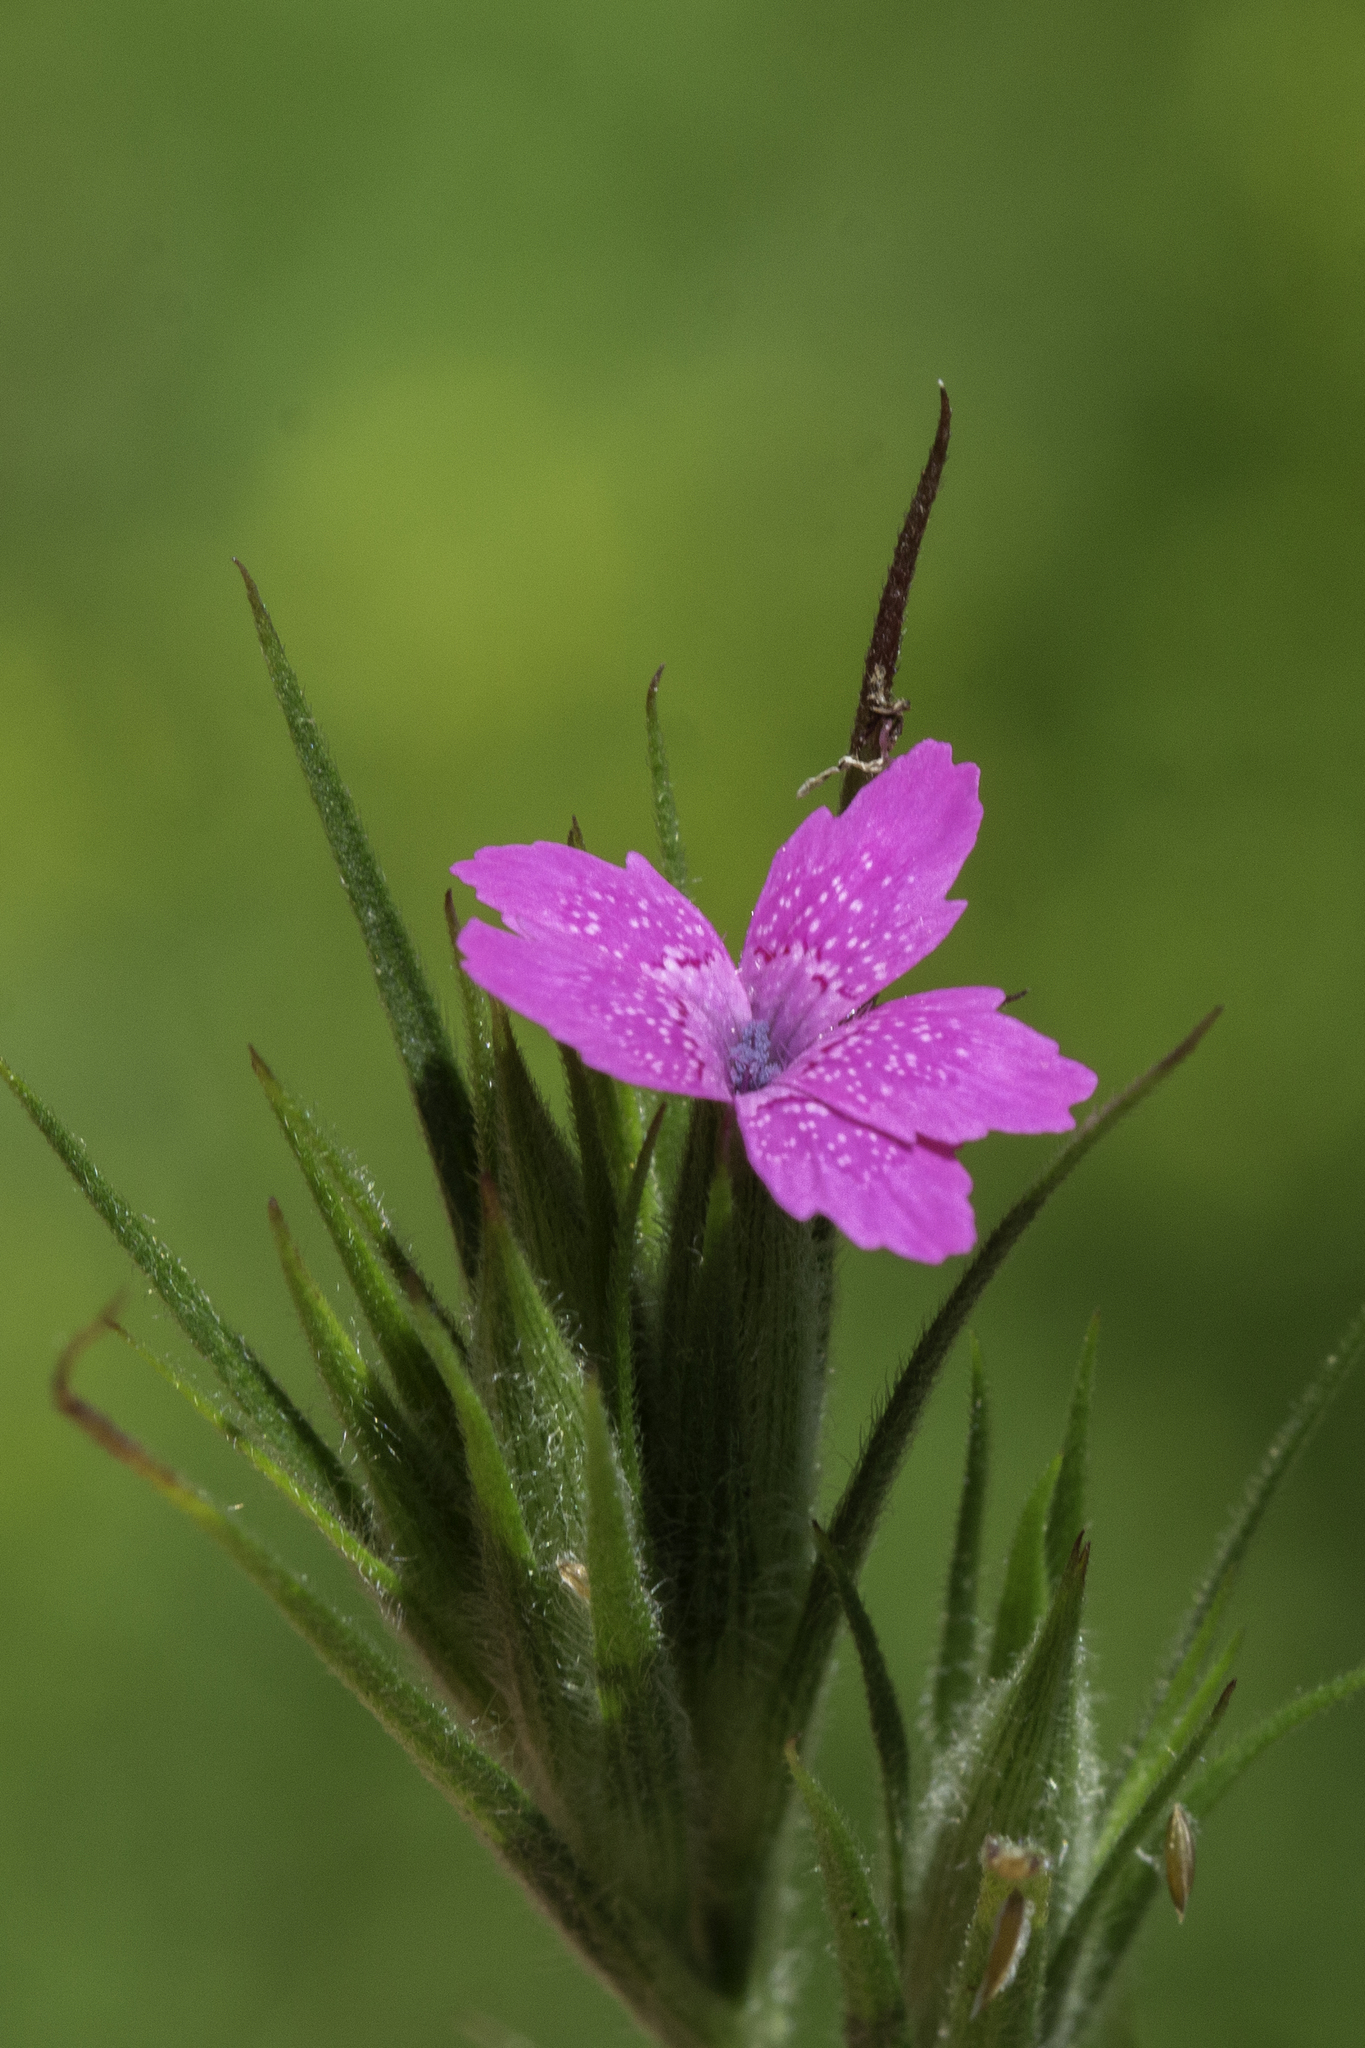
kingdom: Plantae
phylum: Tracheophyta
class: Magnoliopsida
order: Caryophyllales
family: Caryophyllaceae
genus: Dianthus
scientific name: Dianthus armeria
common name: Deptford pink
